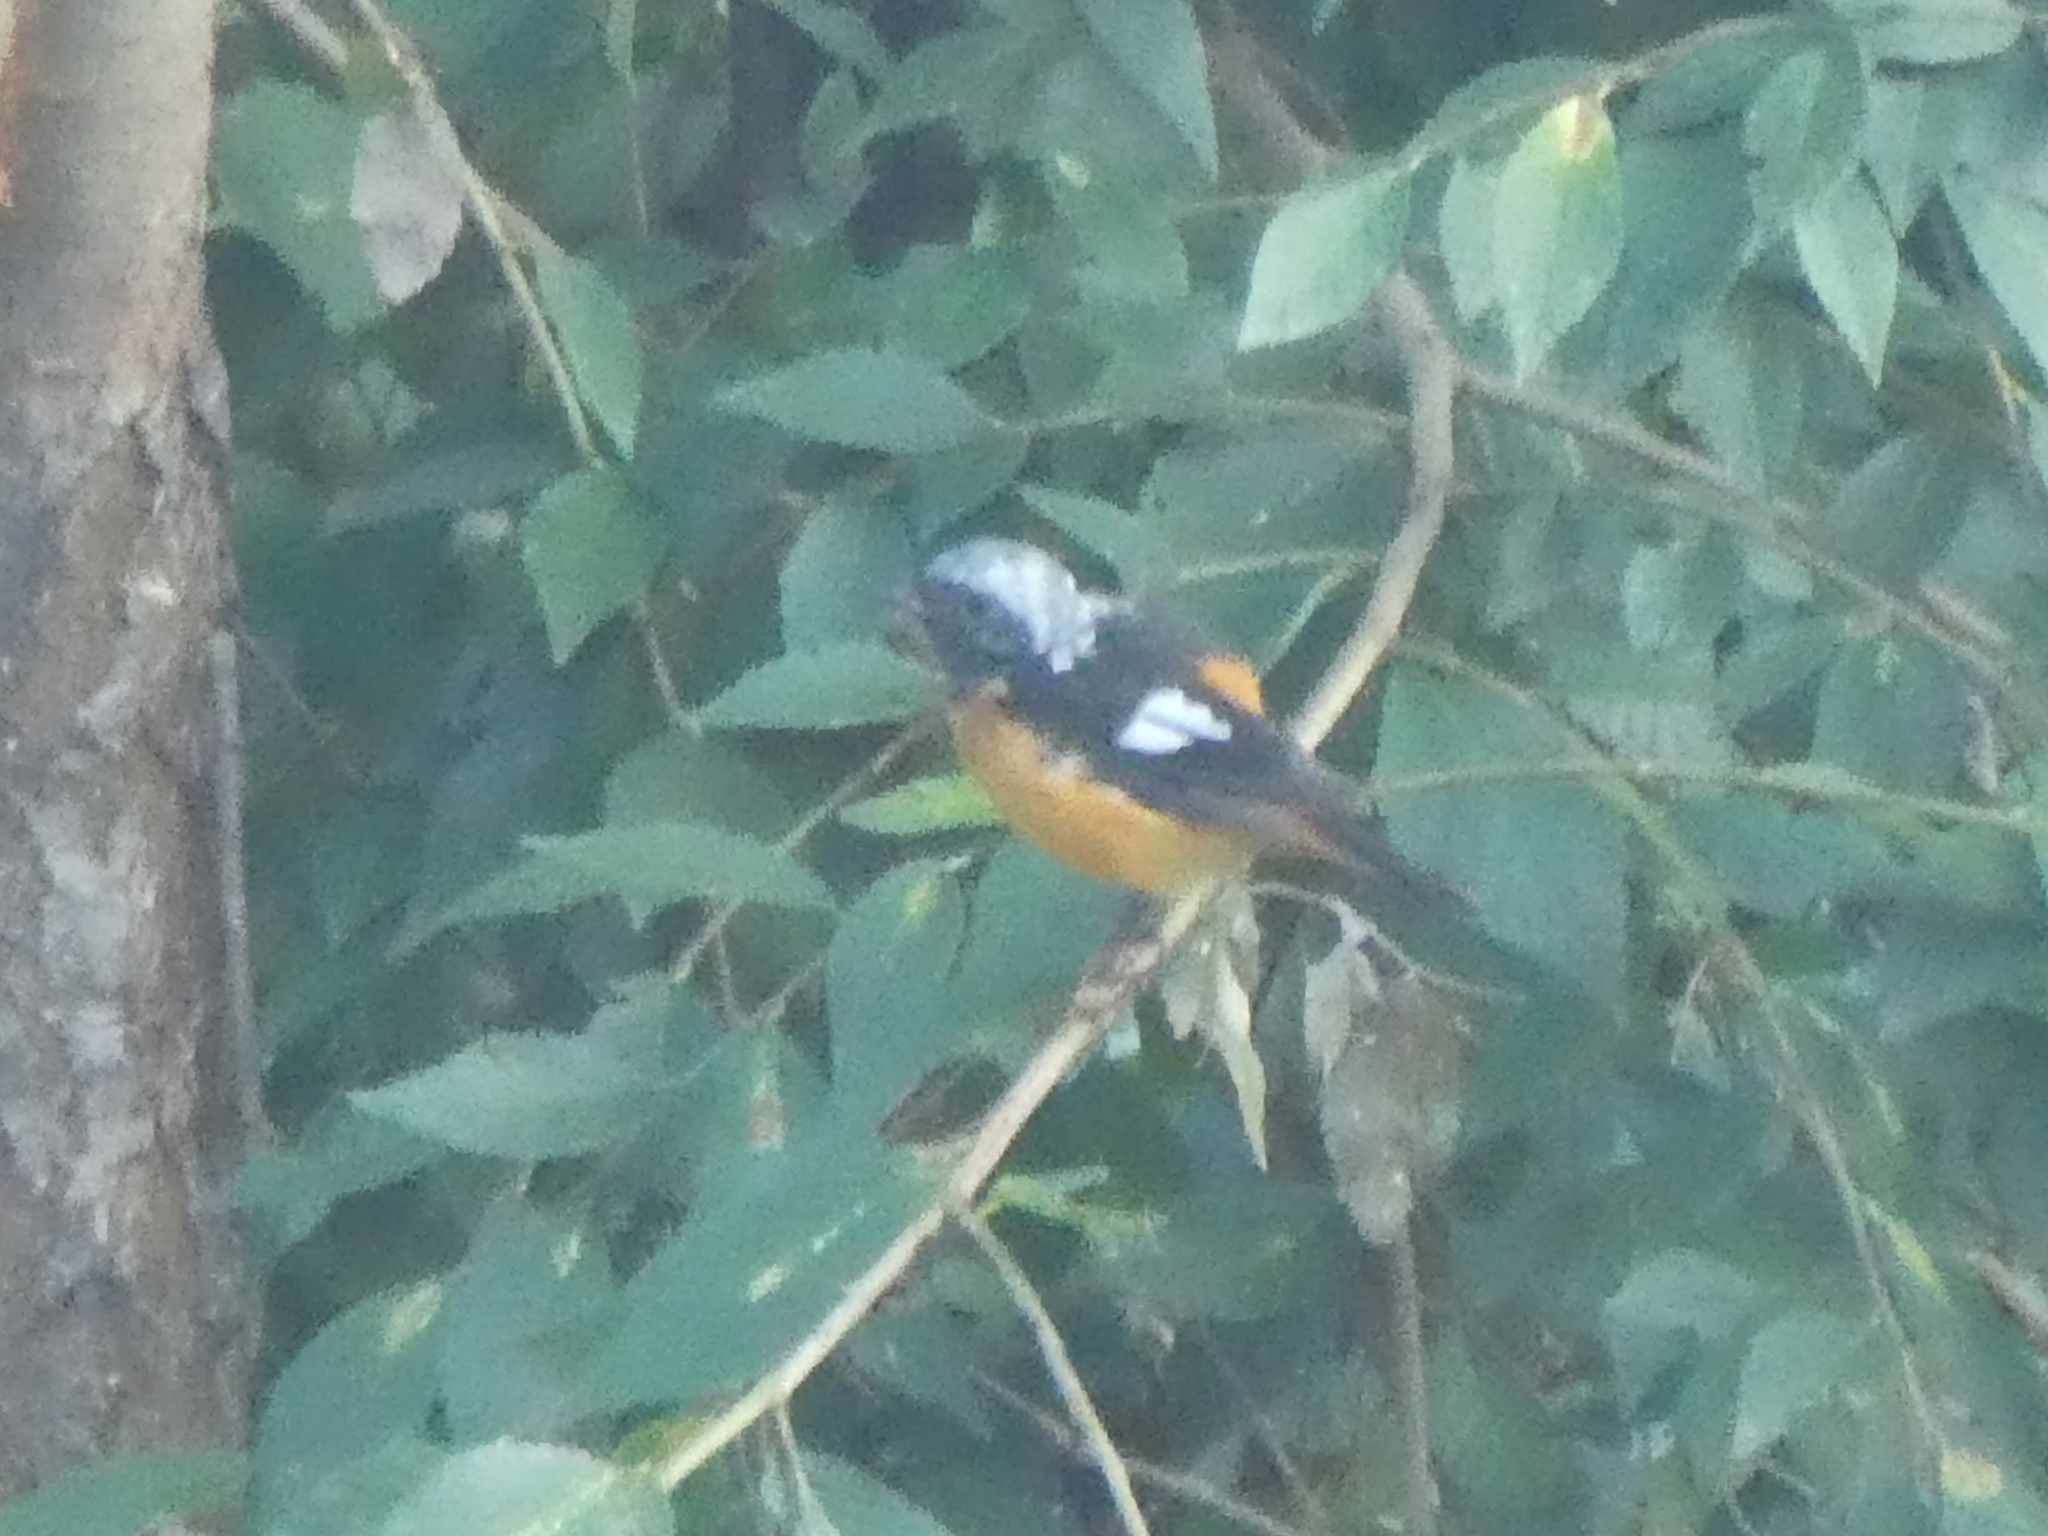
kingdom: Animalia
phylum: Chordata
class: Aves
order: Passeriformes
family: Muscicapidae
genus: Phoenicurus
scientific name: Phoenicurus auroreus
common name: Daurian redstart
